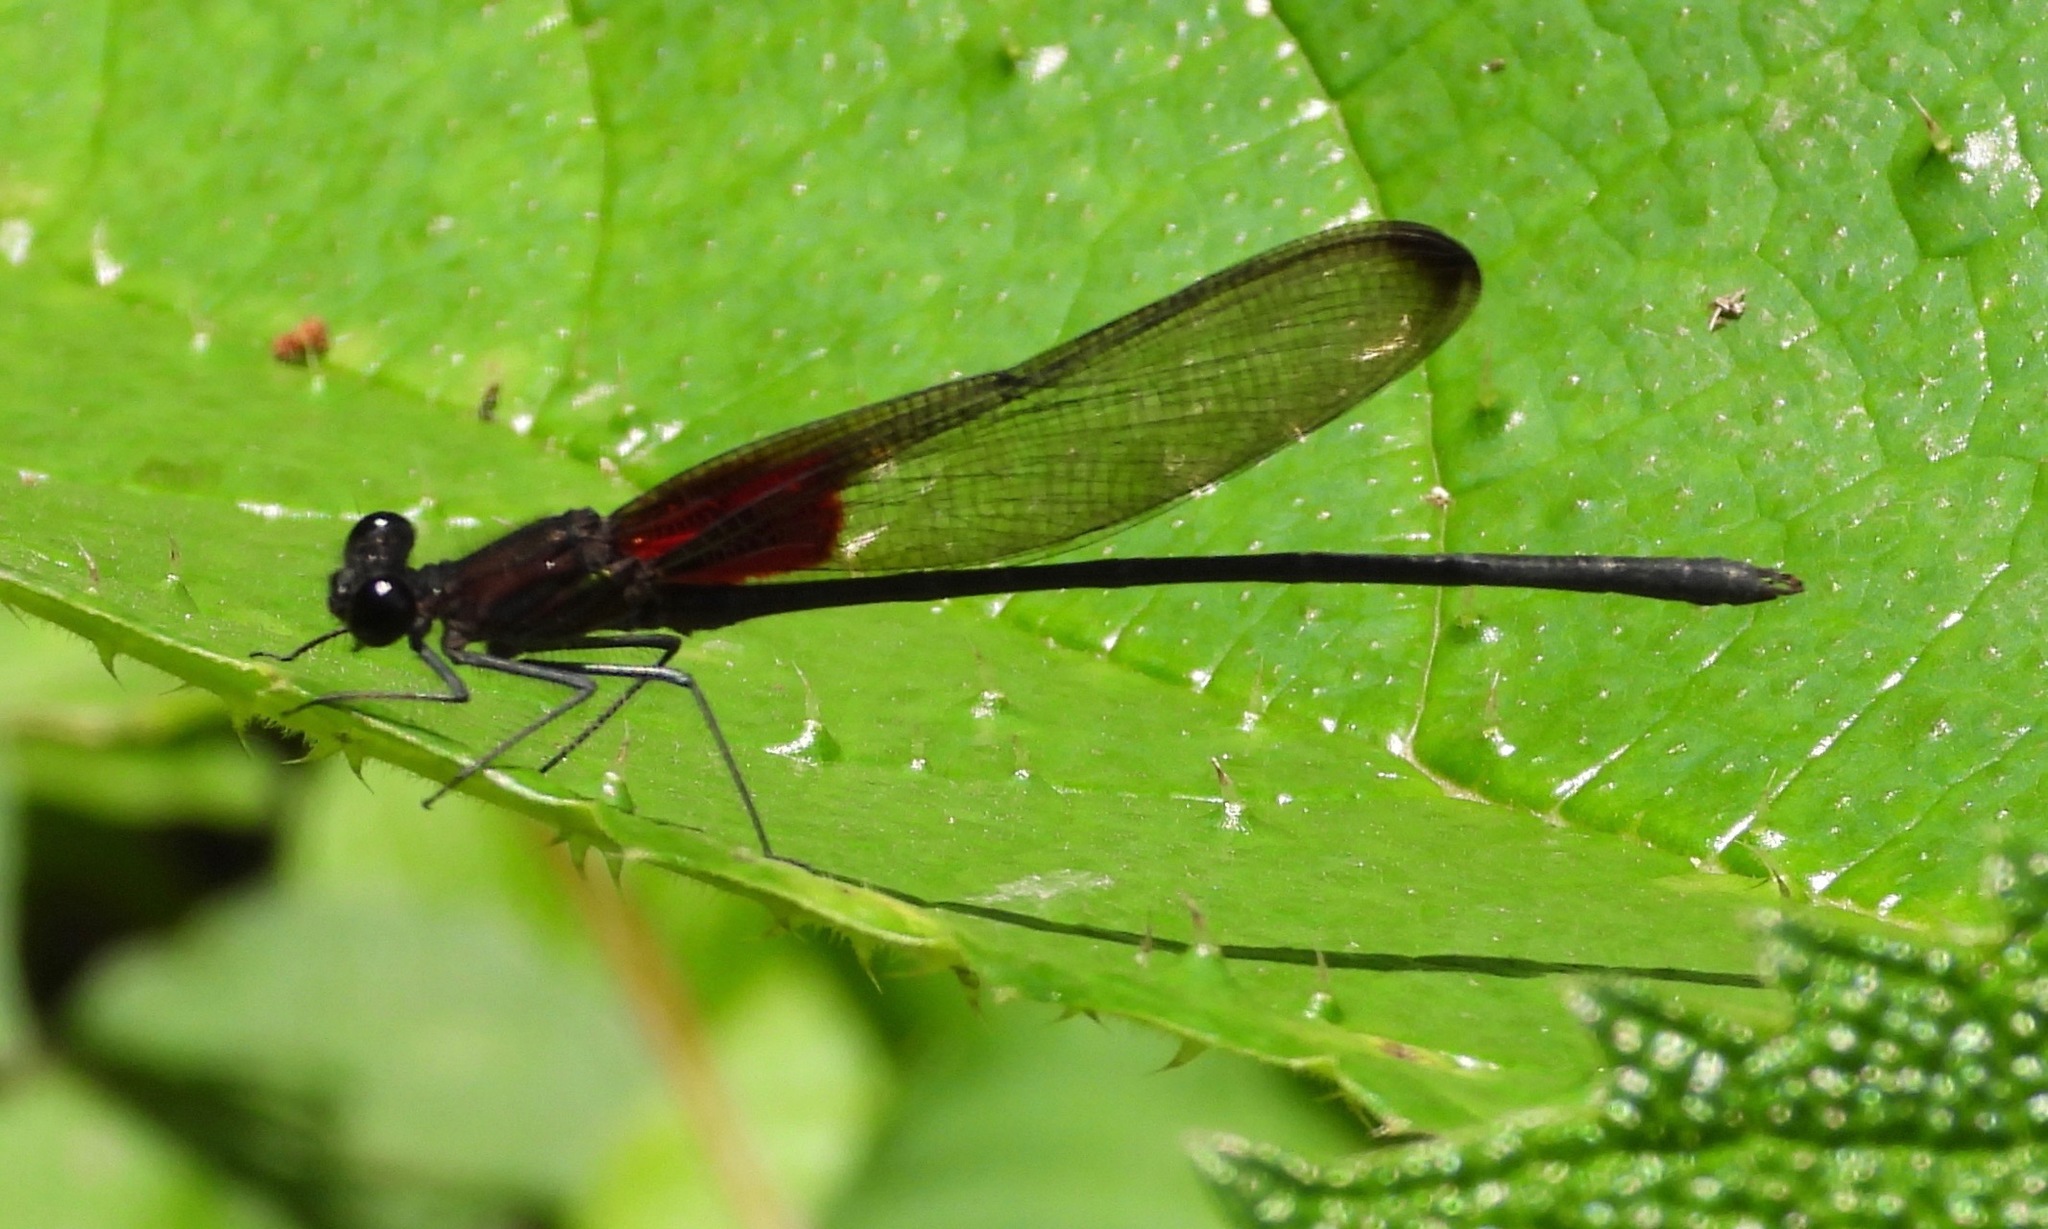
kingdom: Animalia
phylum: Arthropoda
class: Insecta
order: Odonata
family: Calopterygidae
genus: Hetaerina
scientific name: Hetaerina cruentata
